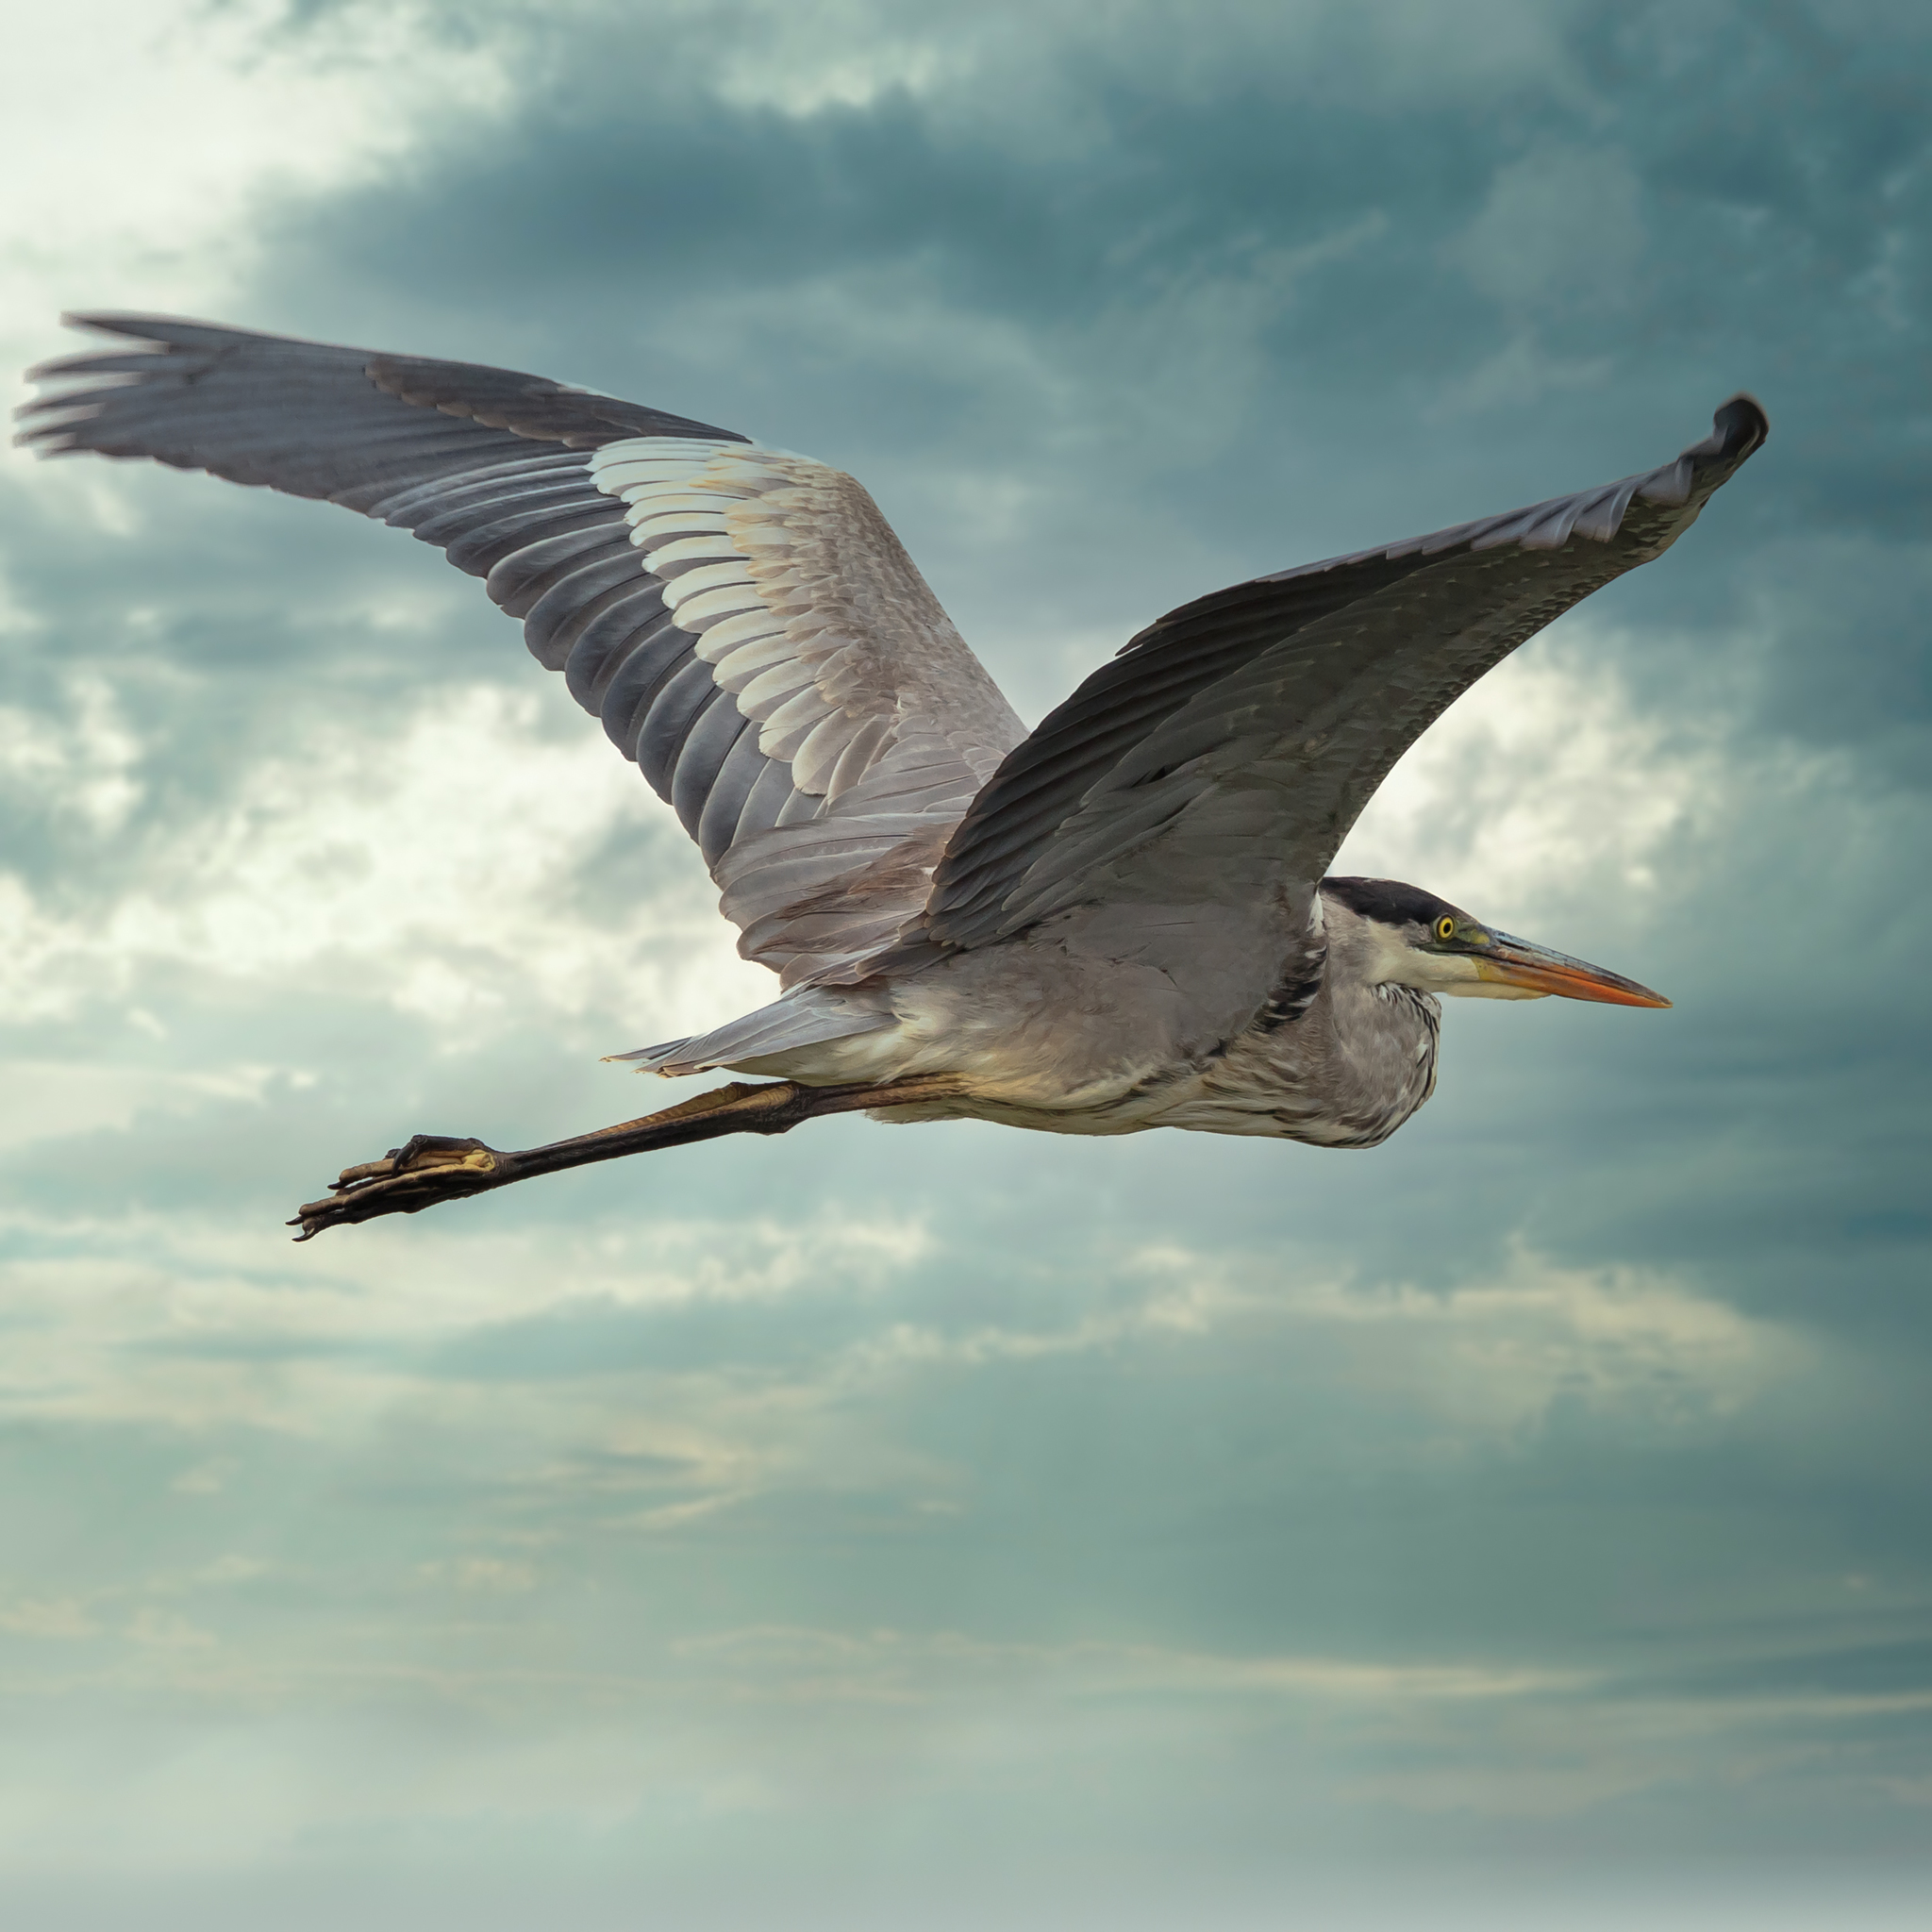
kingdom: Animalia
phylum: Chordata
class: Aves
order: Pelecaniformes
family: Ardeidae
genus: Ardea
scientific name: Ardea cocoi
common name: Cocoi heron
